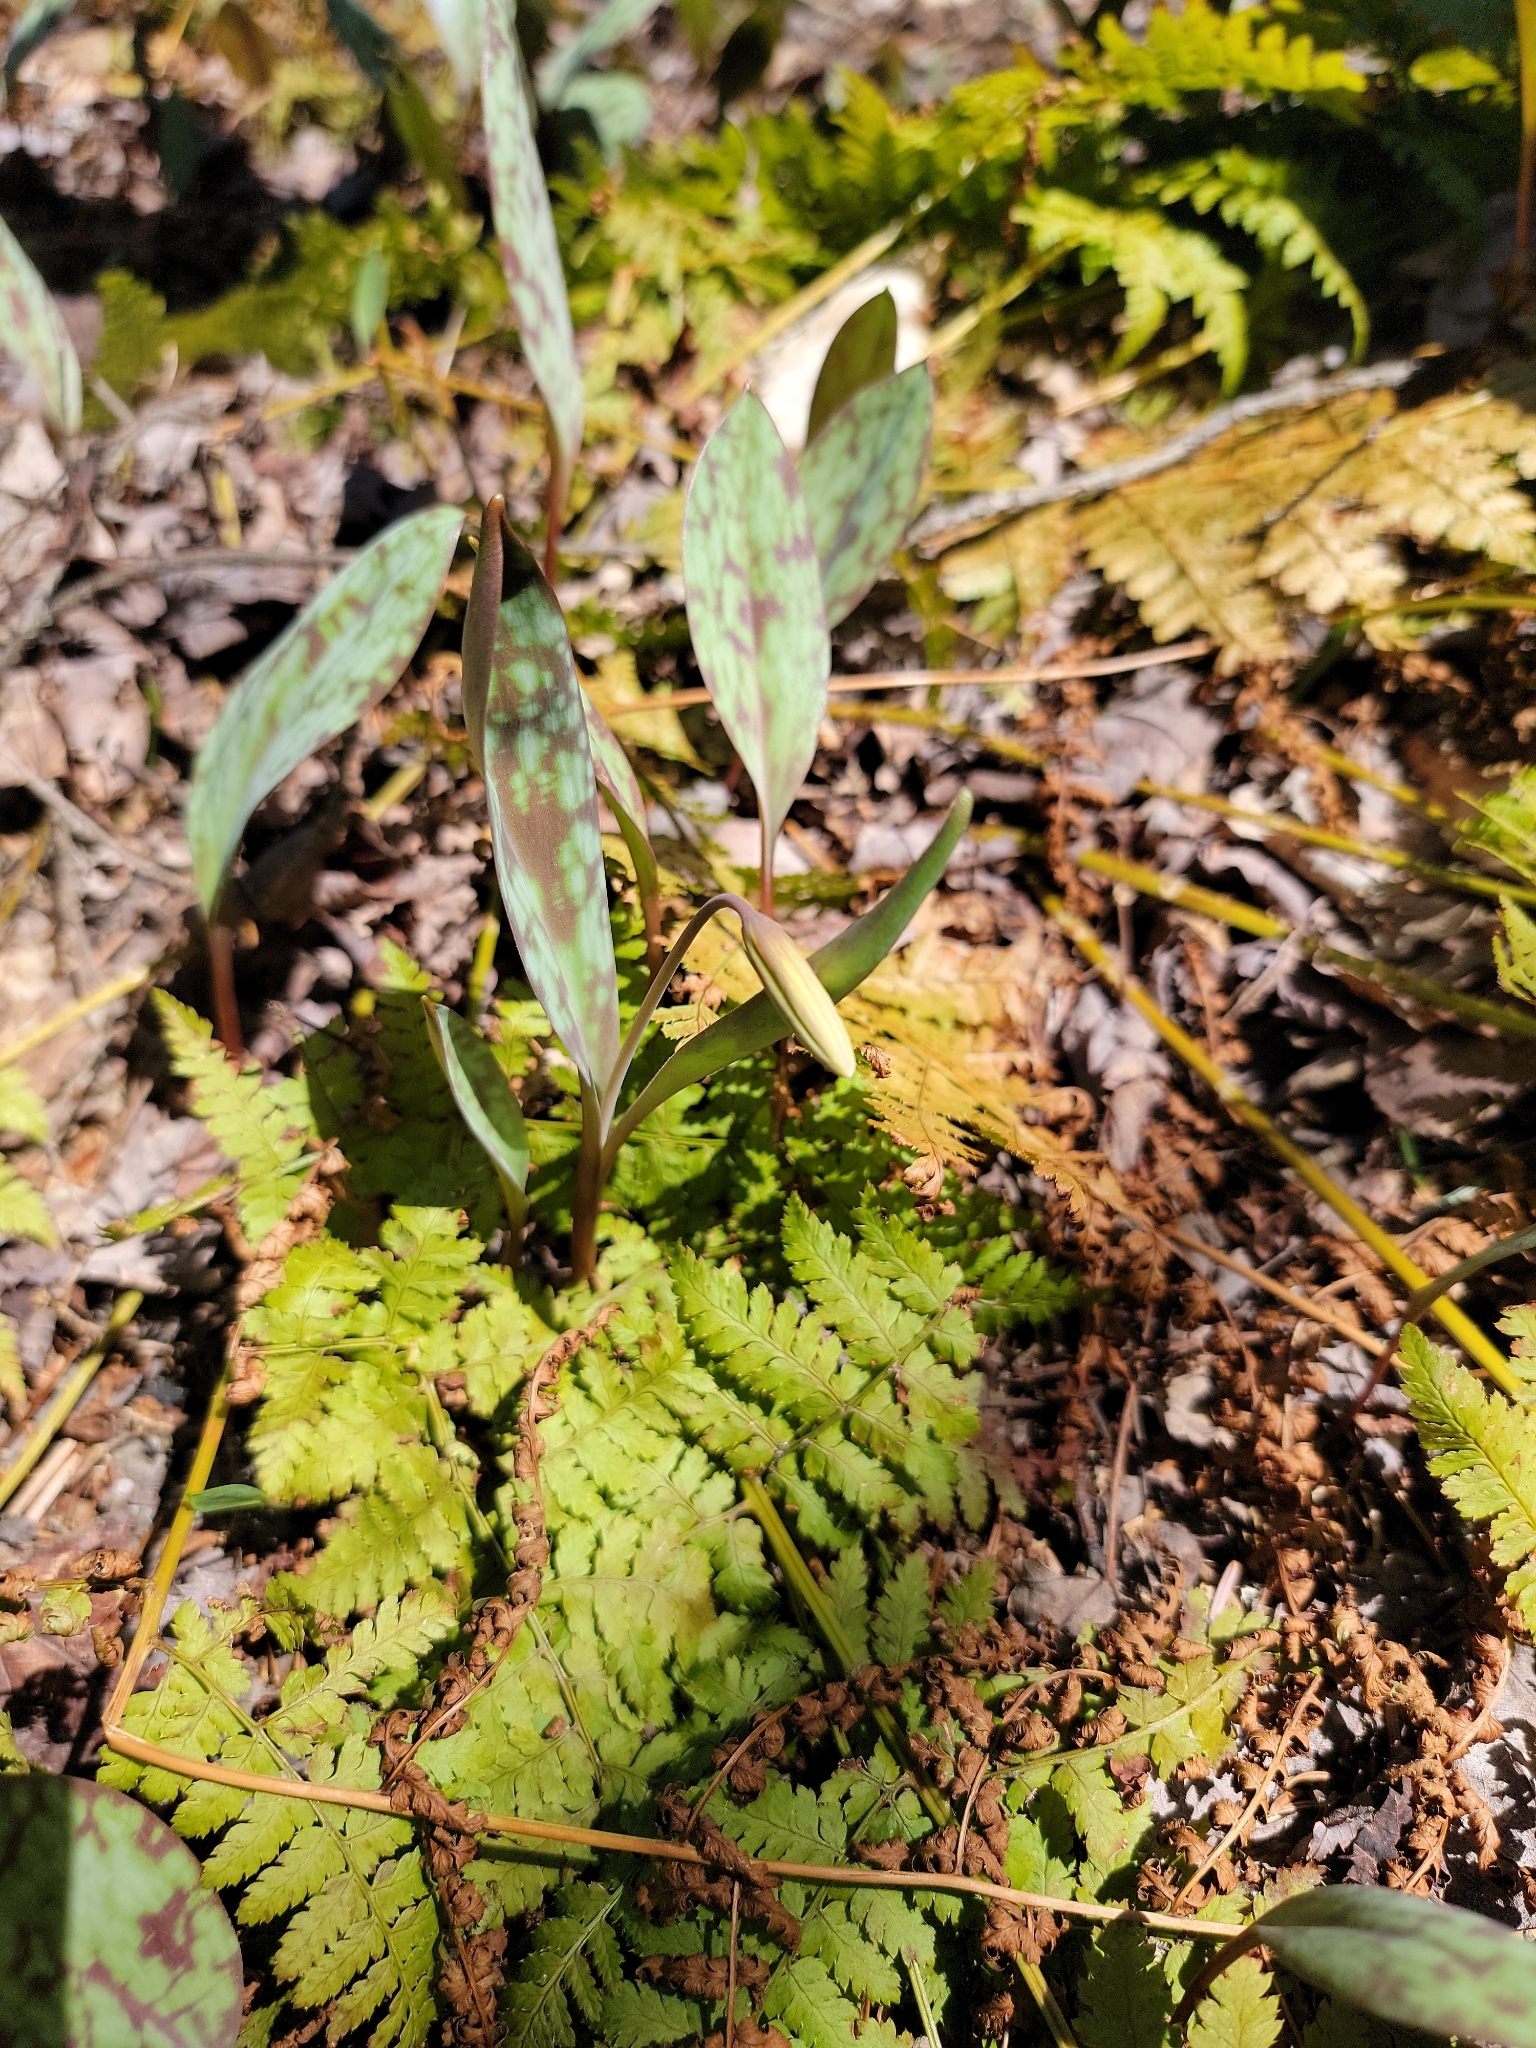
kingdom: Plantae
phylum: Tracheophyta
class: Liliopsida
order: Liliales
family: Liliaceae
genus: Erythronium
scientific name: Erythronium americanum
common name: Yellow adder's-tongue
